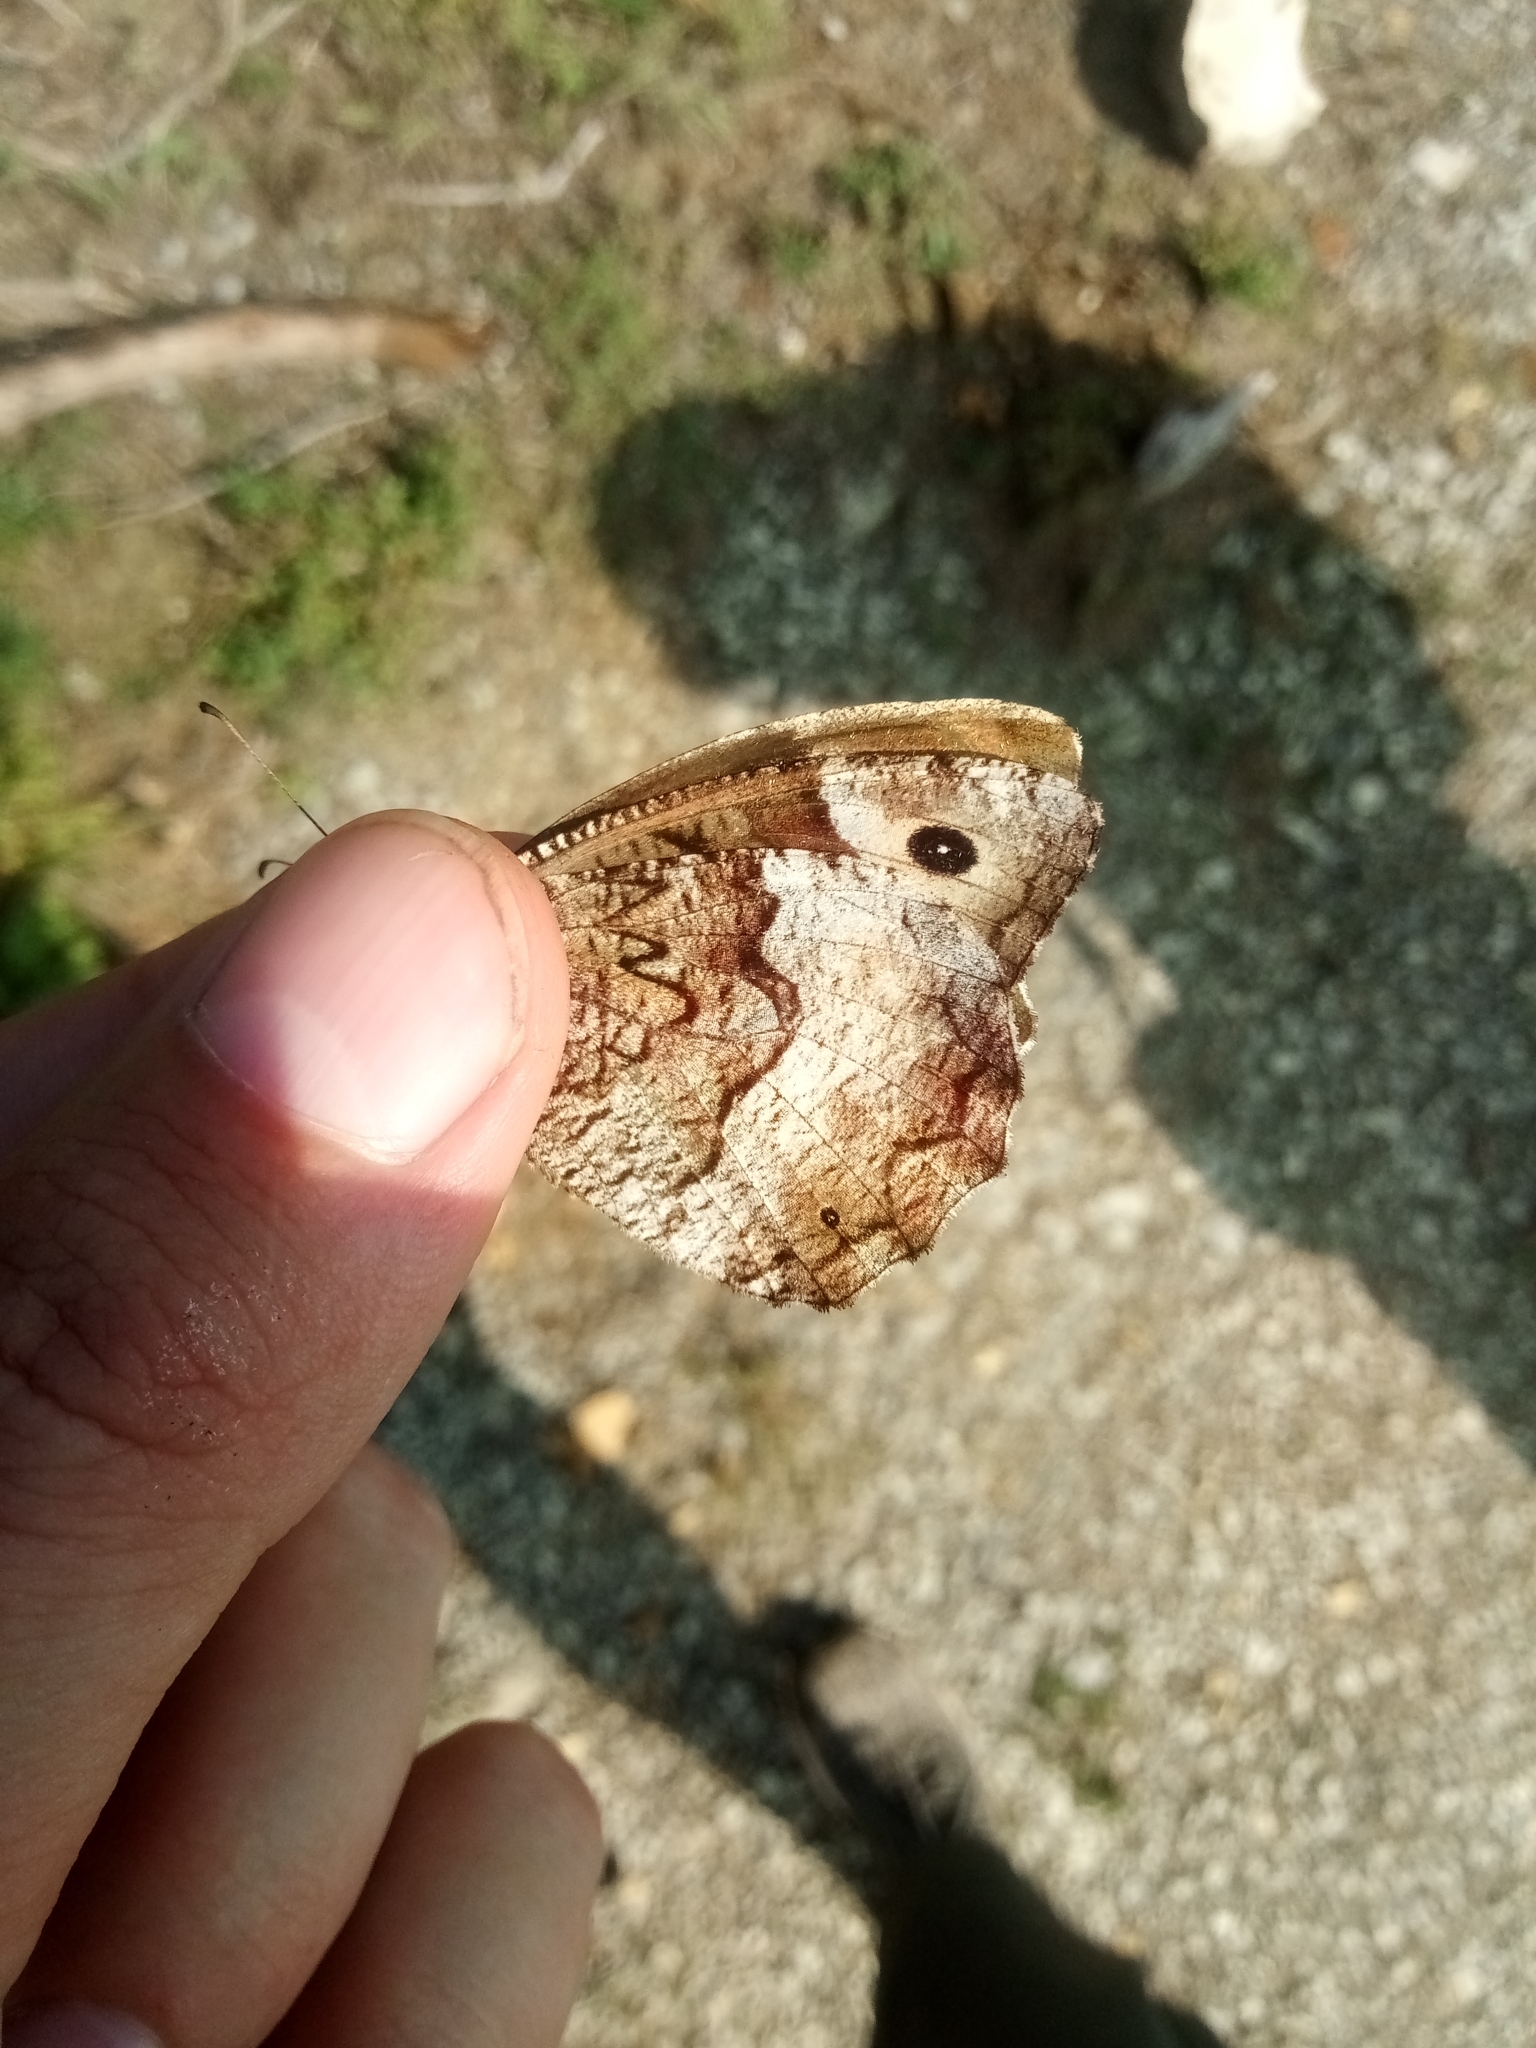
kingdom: Animalia
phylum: Arthropoda
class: Insecta
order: Lepidoptera
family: Nymphalidae
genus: Hipparchia
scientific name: Hipparchia fagi
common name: Woodland grayling
